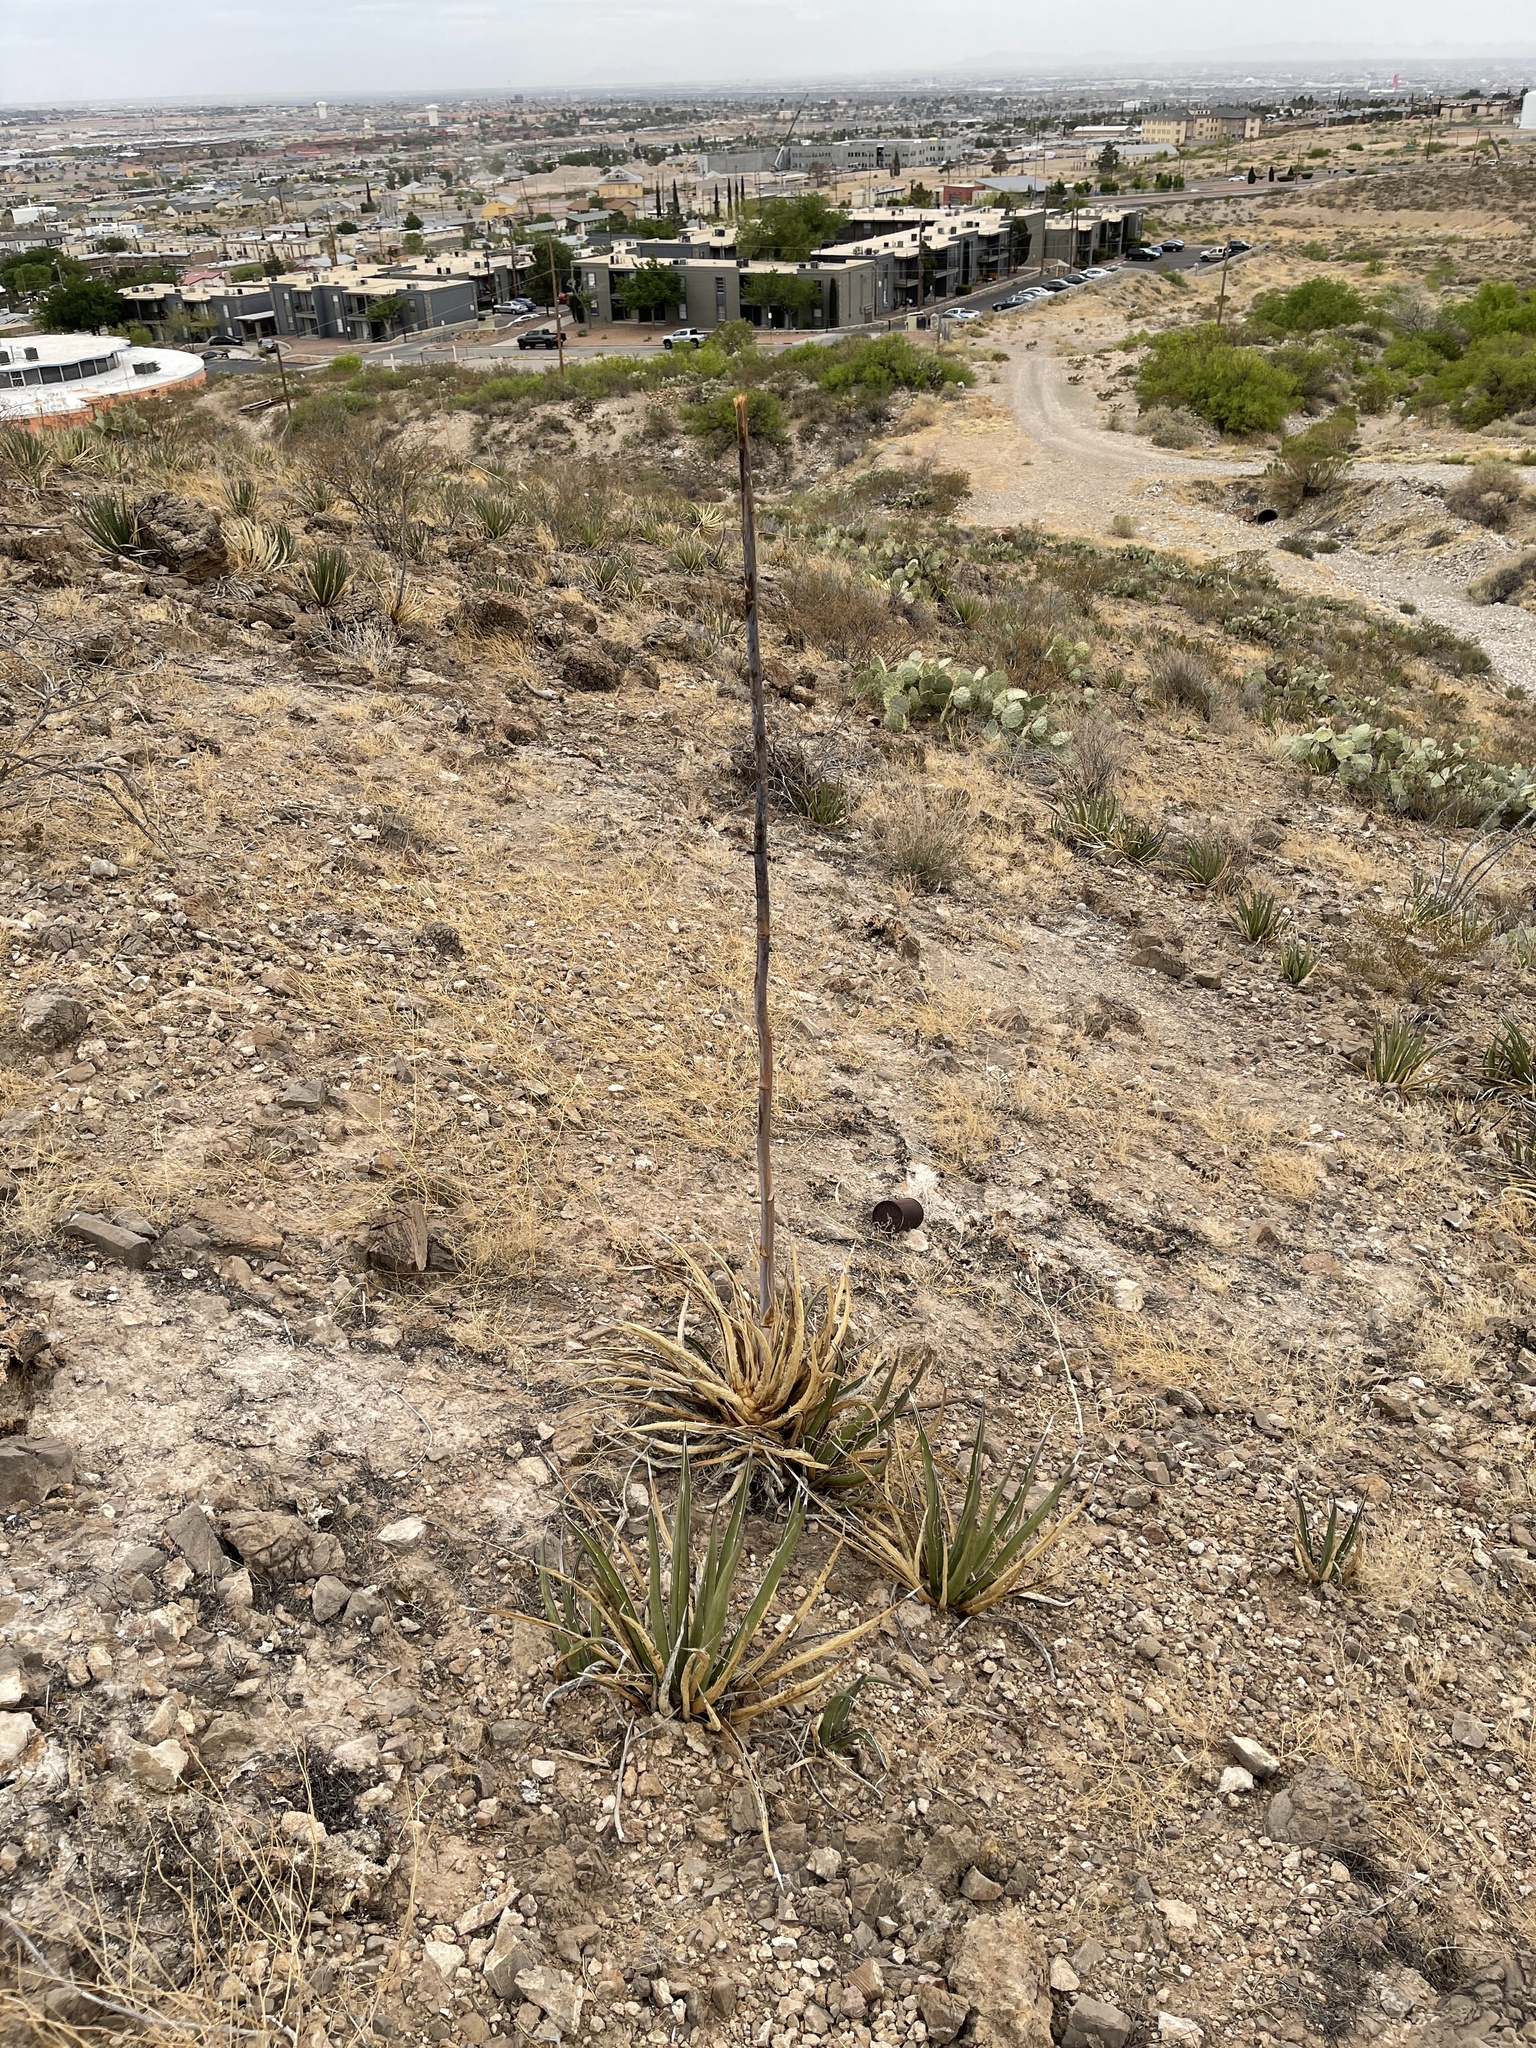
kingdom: Plantae
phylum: Tracheophyta
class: Liliopsida
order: Asparagales
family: Asparagaceae
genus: Agave
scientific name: Agave lechuguilla
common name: Lecheguilla agave
